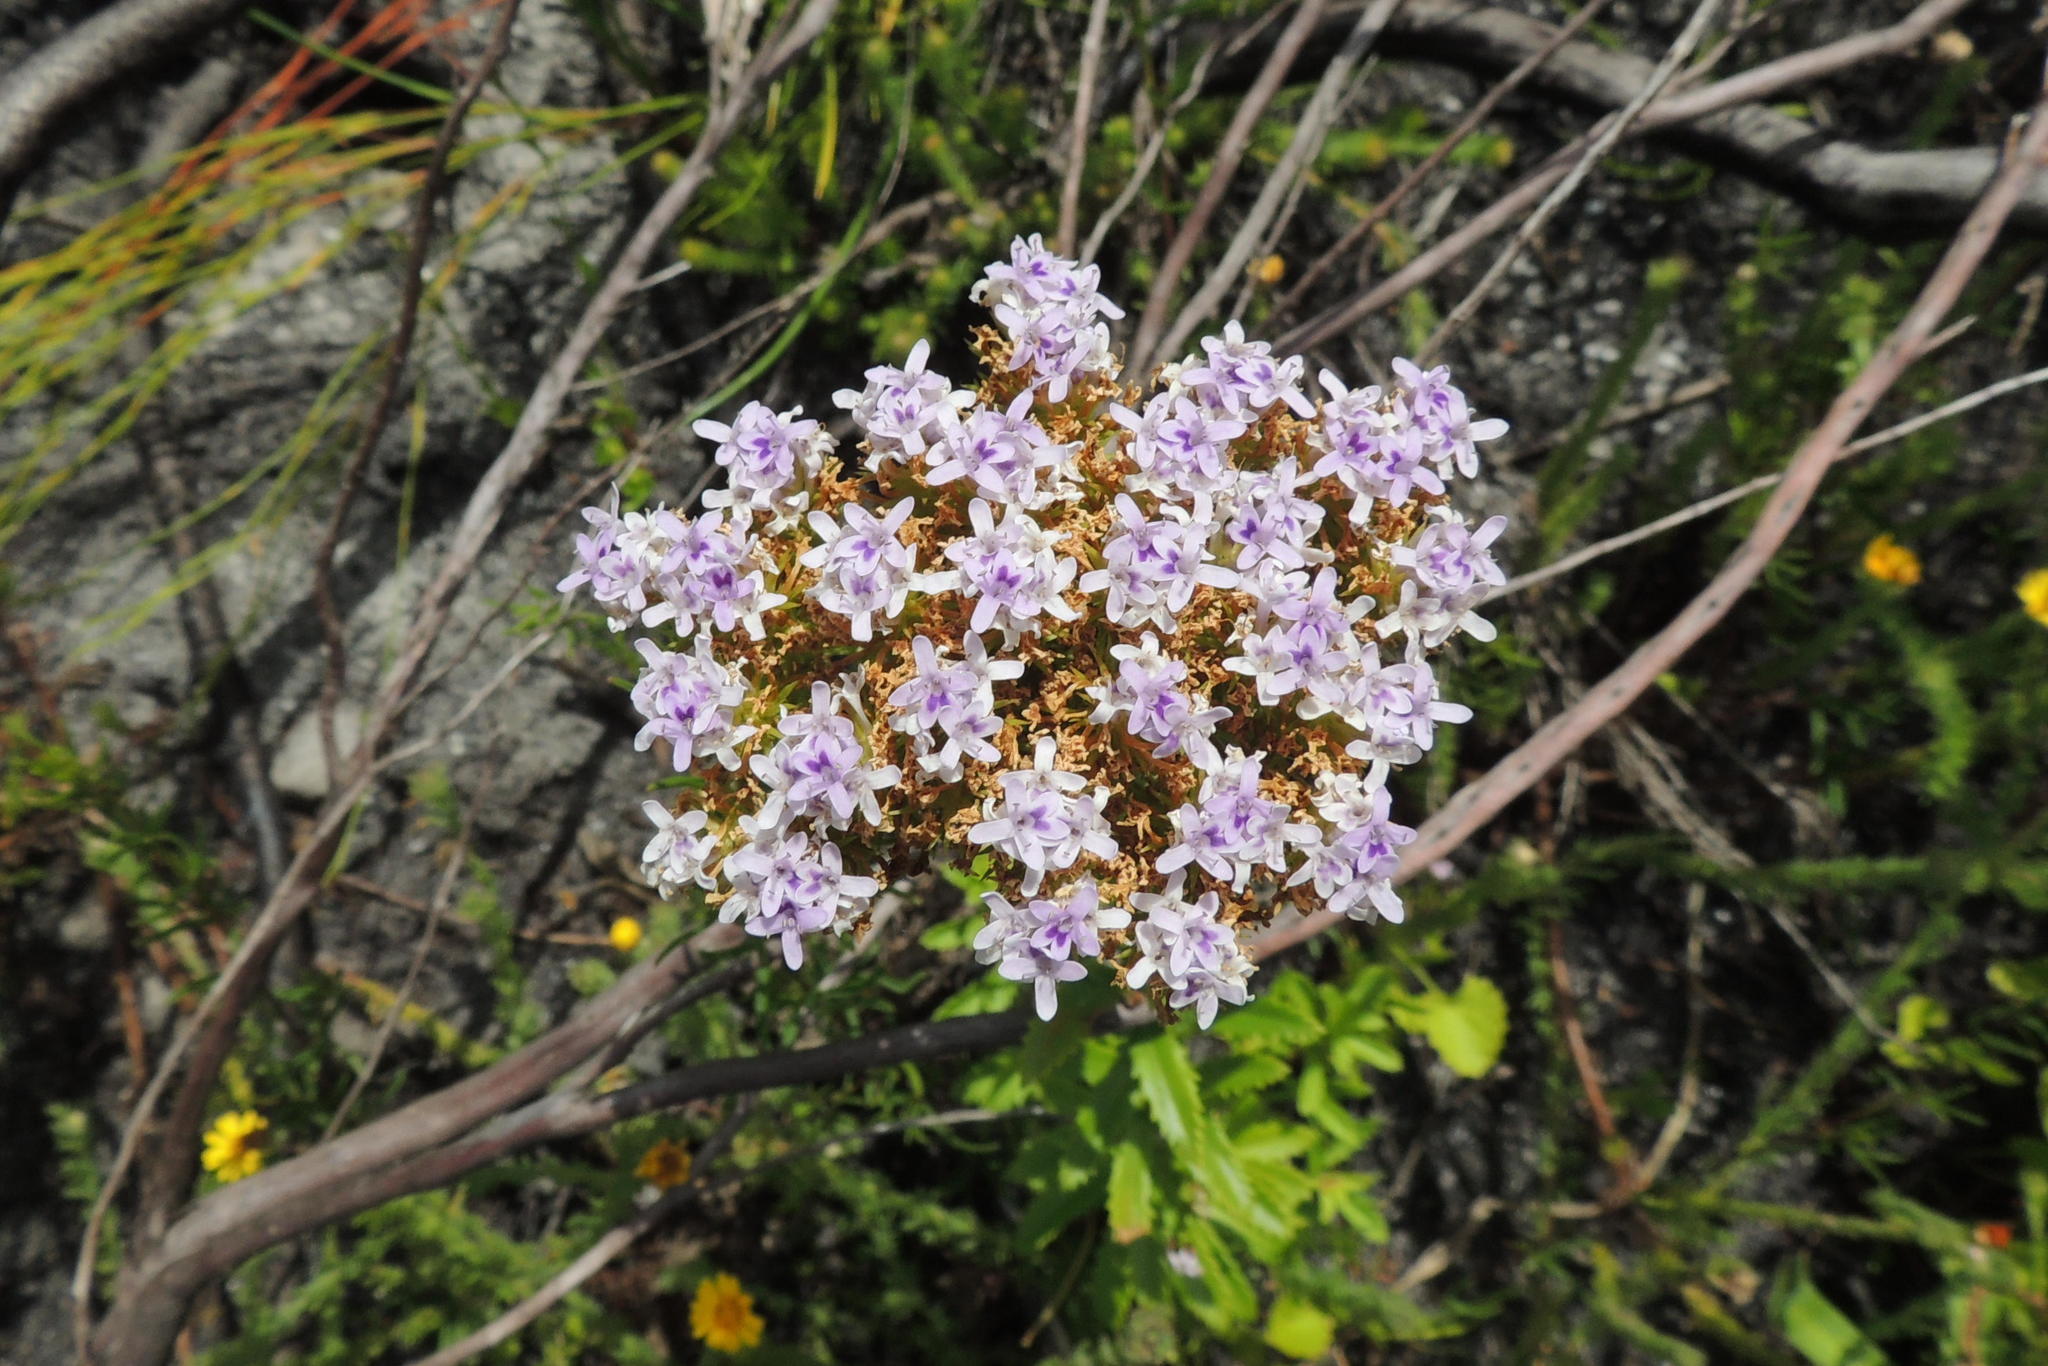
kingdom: Plantae
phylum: Tracheophyta
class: Magnoliopsida
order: Lamiales
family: Scrophulariaceae
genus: Pseudoselago
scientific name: Pseudoselago langebergensis
